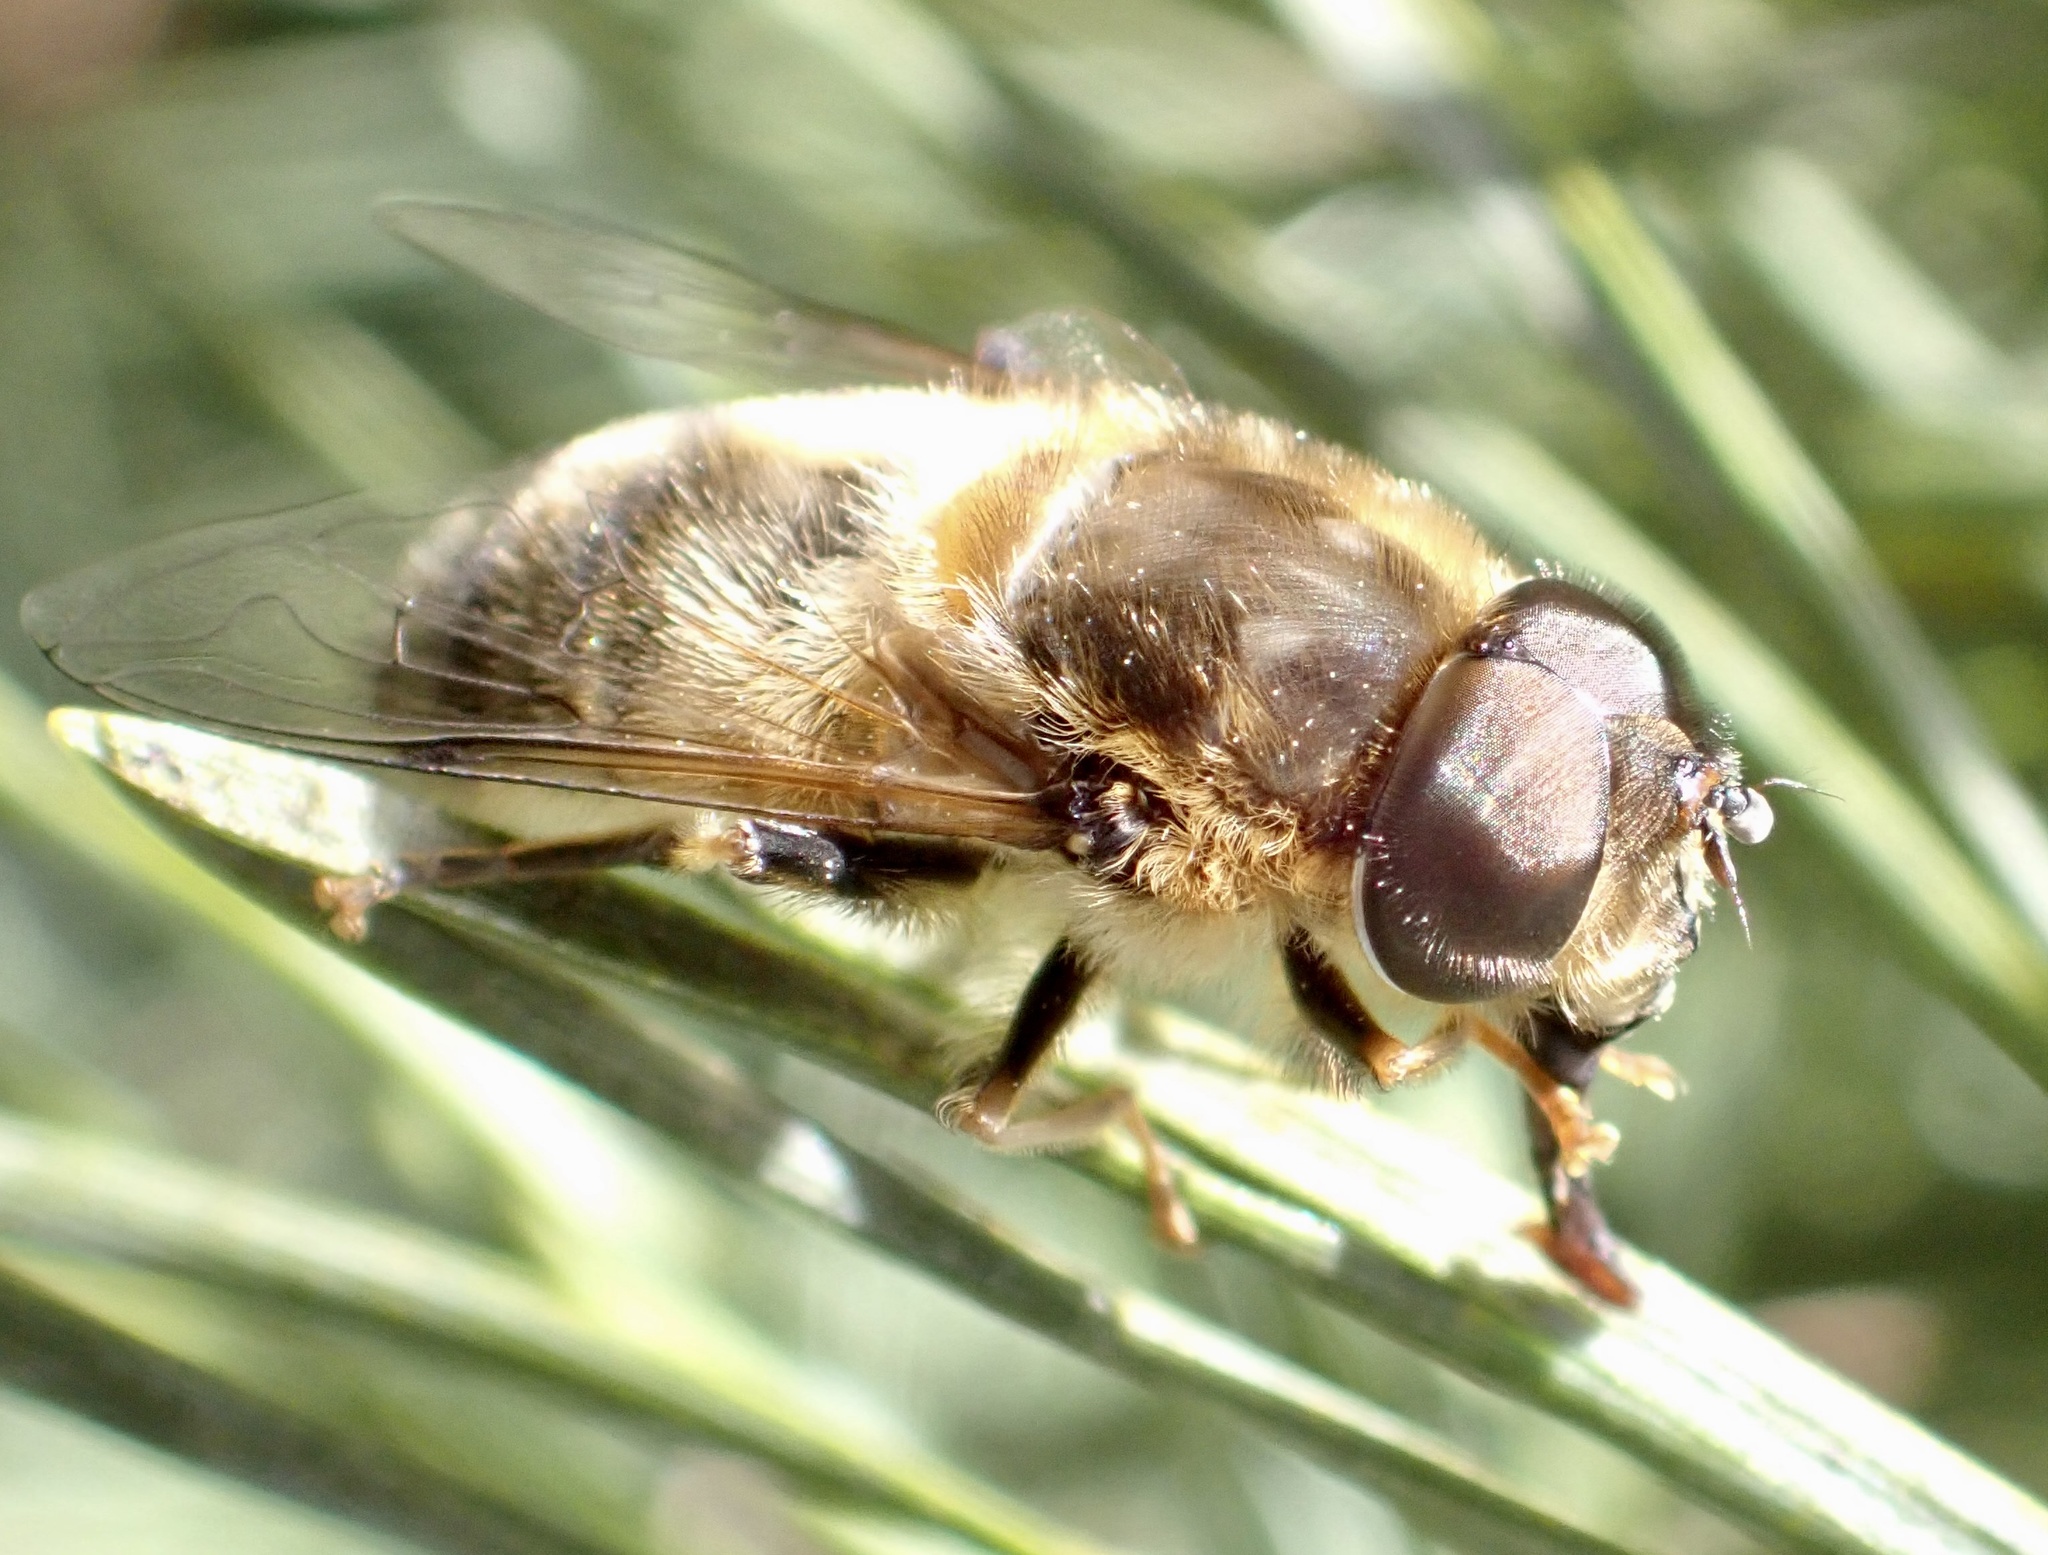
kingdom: Animalia
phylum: Arthropoda
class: Insecta
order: Diptera
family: Syrphidae
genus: Eristalis
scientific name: Eristalis pertinax
